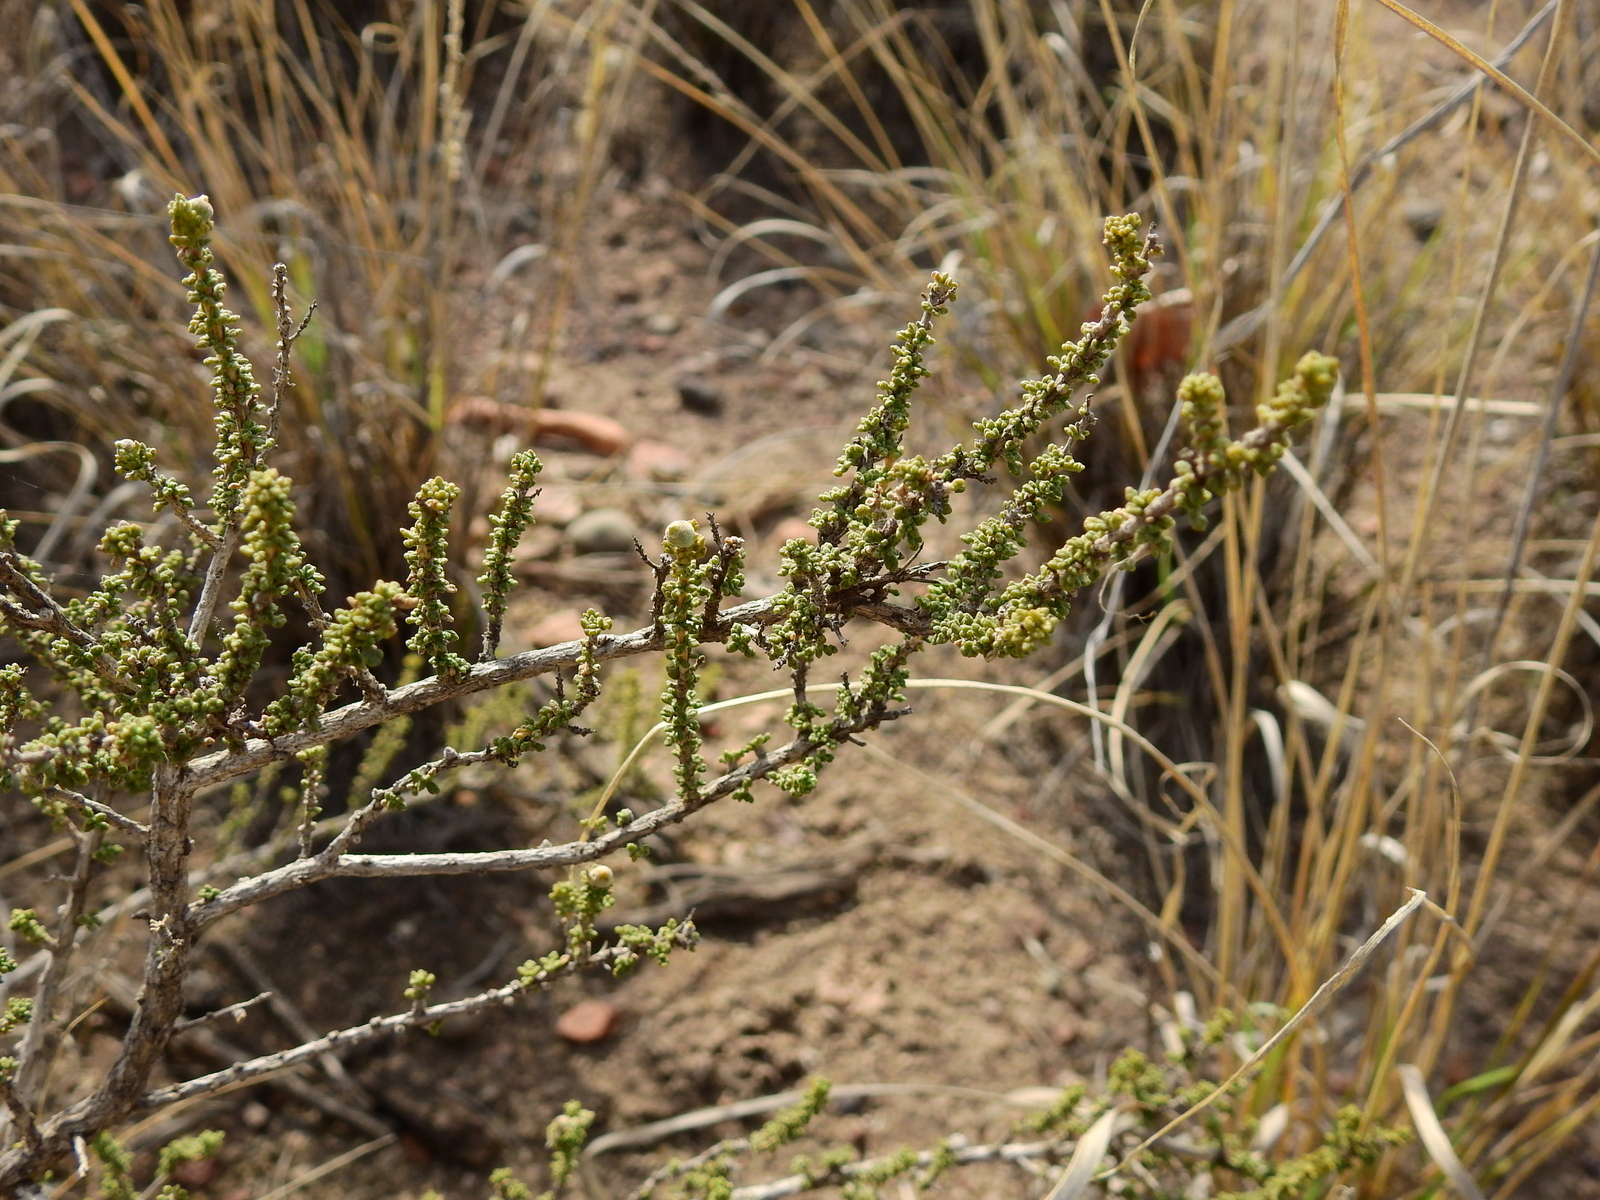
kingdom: Plantae
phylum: Tracheophyta
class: Magnoliopsida
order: Lamiales
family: Verbenaceae
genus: Acantholippia
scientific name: Acantholippia seriphioides
